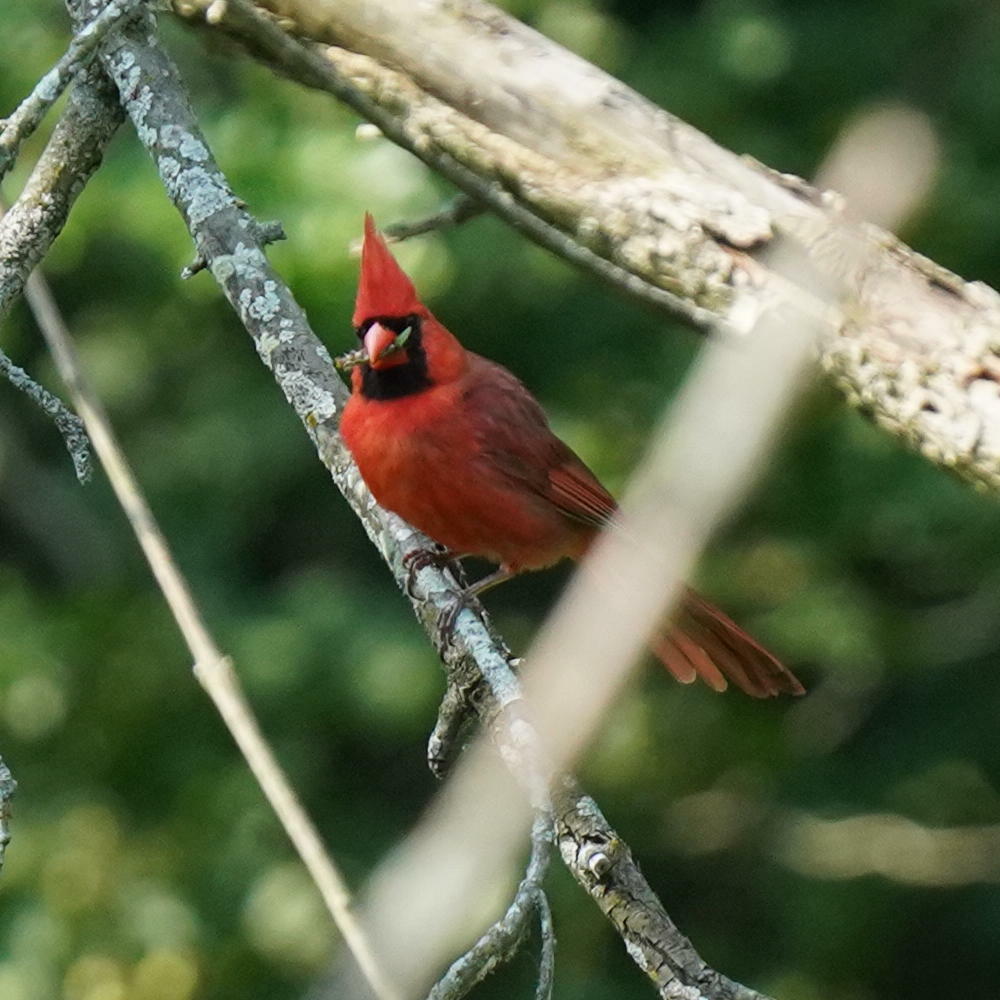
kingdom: Animalia
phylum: Chordata
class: Aves
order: Passeriformes
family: Cardinalidae
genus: Cardinalis
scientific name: Cardinalis cardinalis
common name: Northern cardinal
